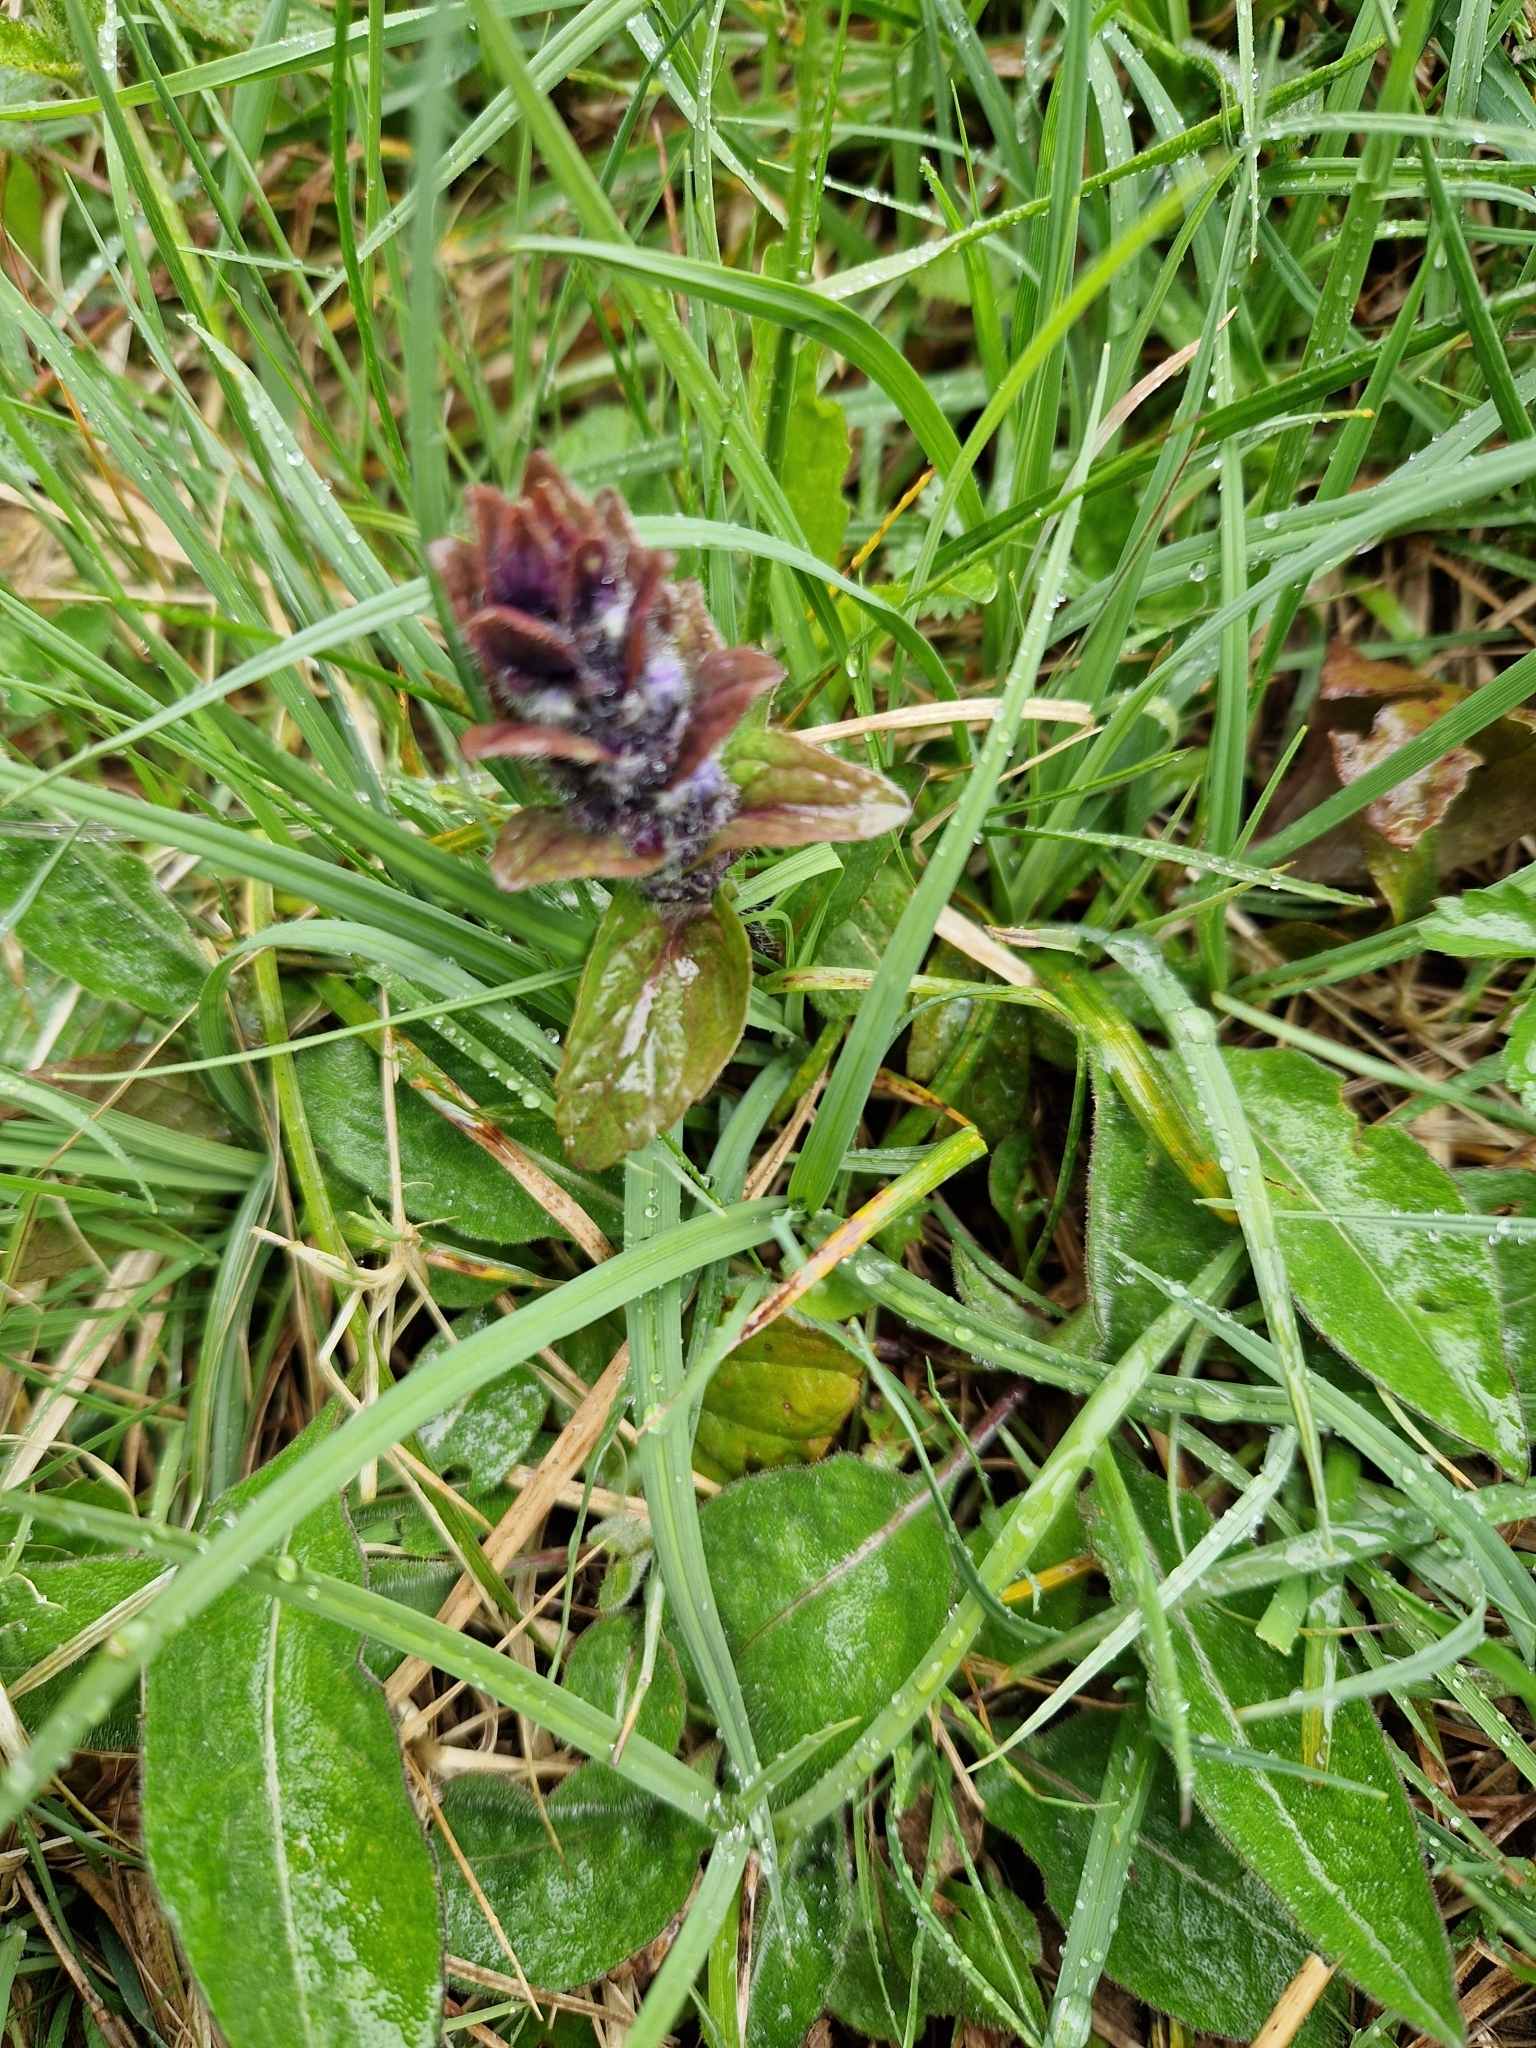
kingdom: Plantae
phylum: Tracheophyta
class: Magnoliopsida
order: Lamiales
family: Lamiaceae
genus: Ajuga
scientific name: Ajuga reptans
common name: Bugle
